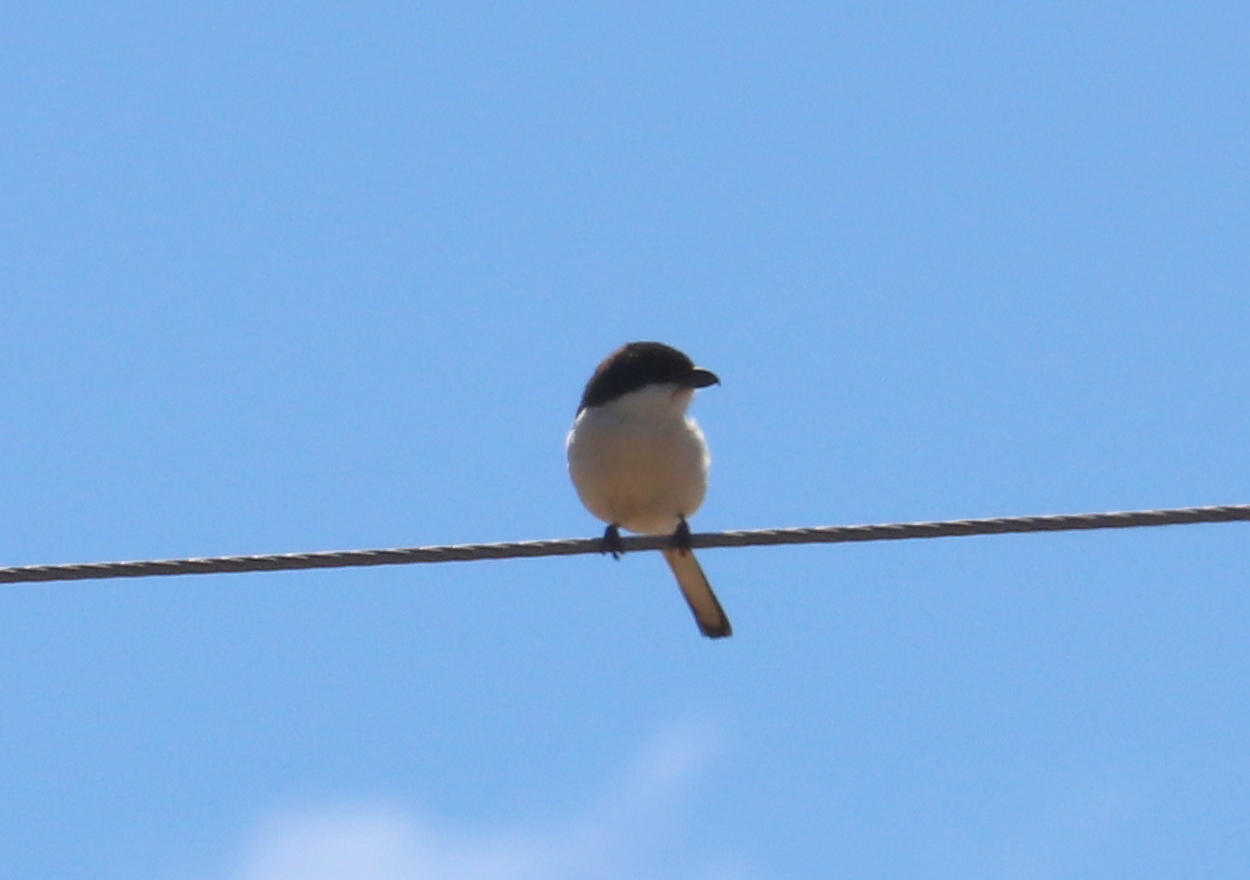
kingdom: Animalia
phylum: Chordata
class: Aves
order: Passeriformes
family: Laniidae
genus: Lanius
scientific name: Lanius collaris
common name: Southern fiscal
